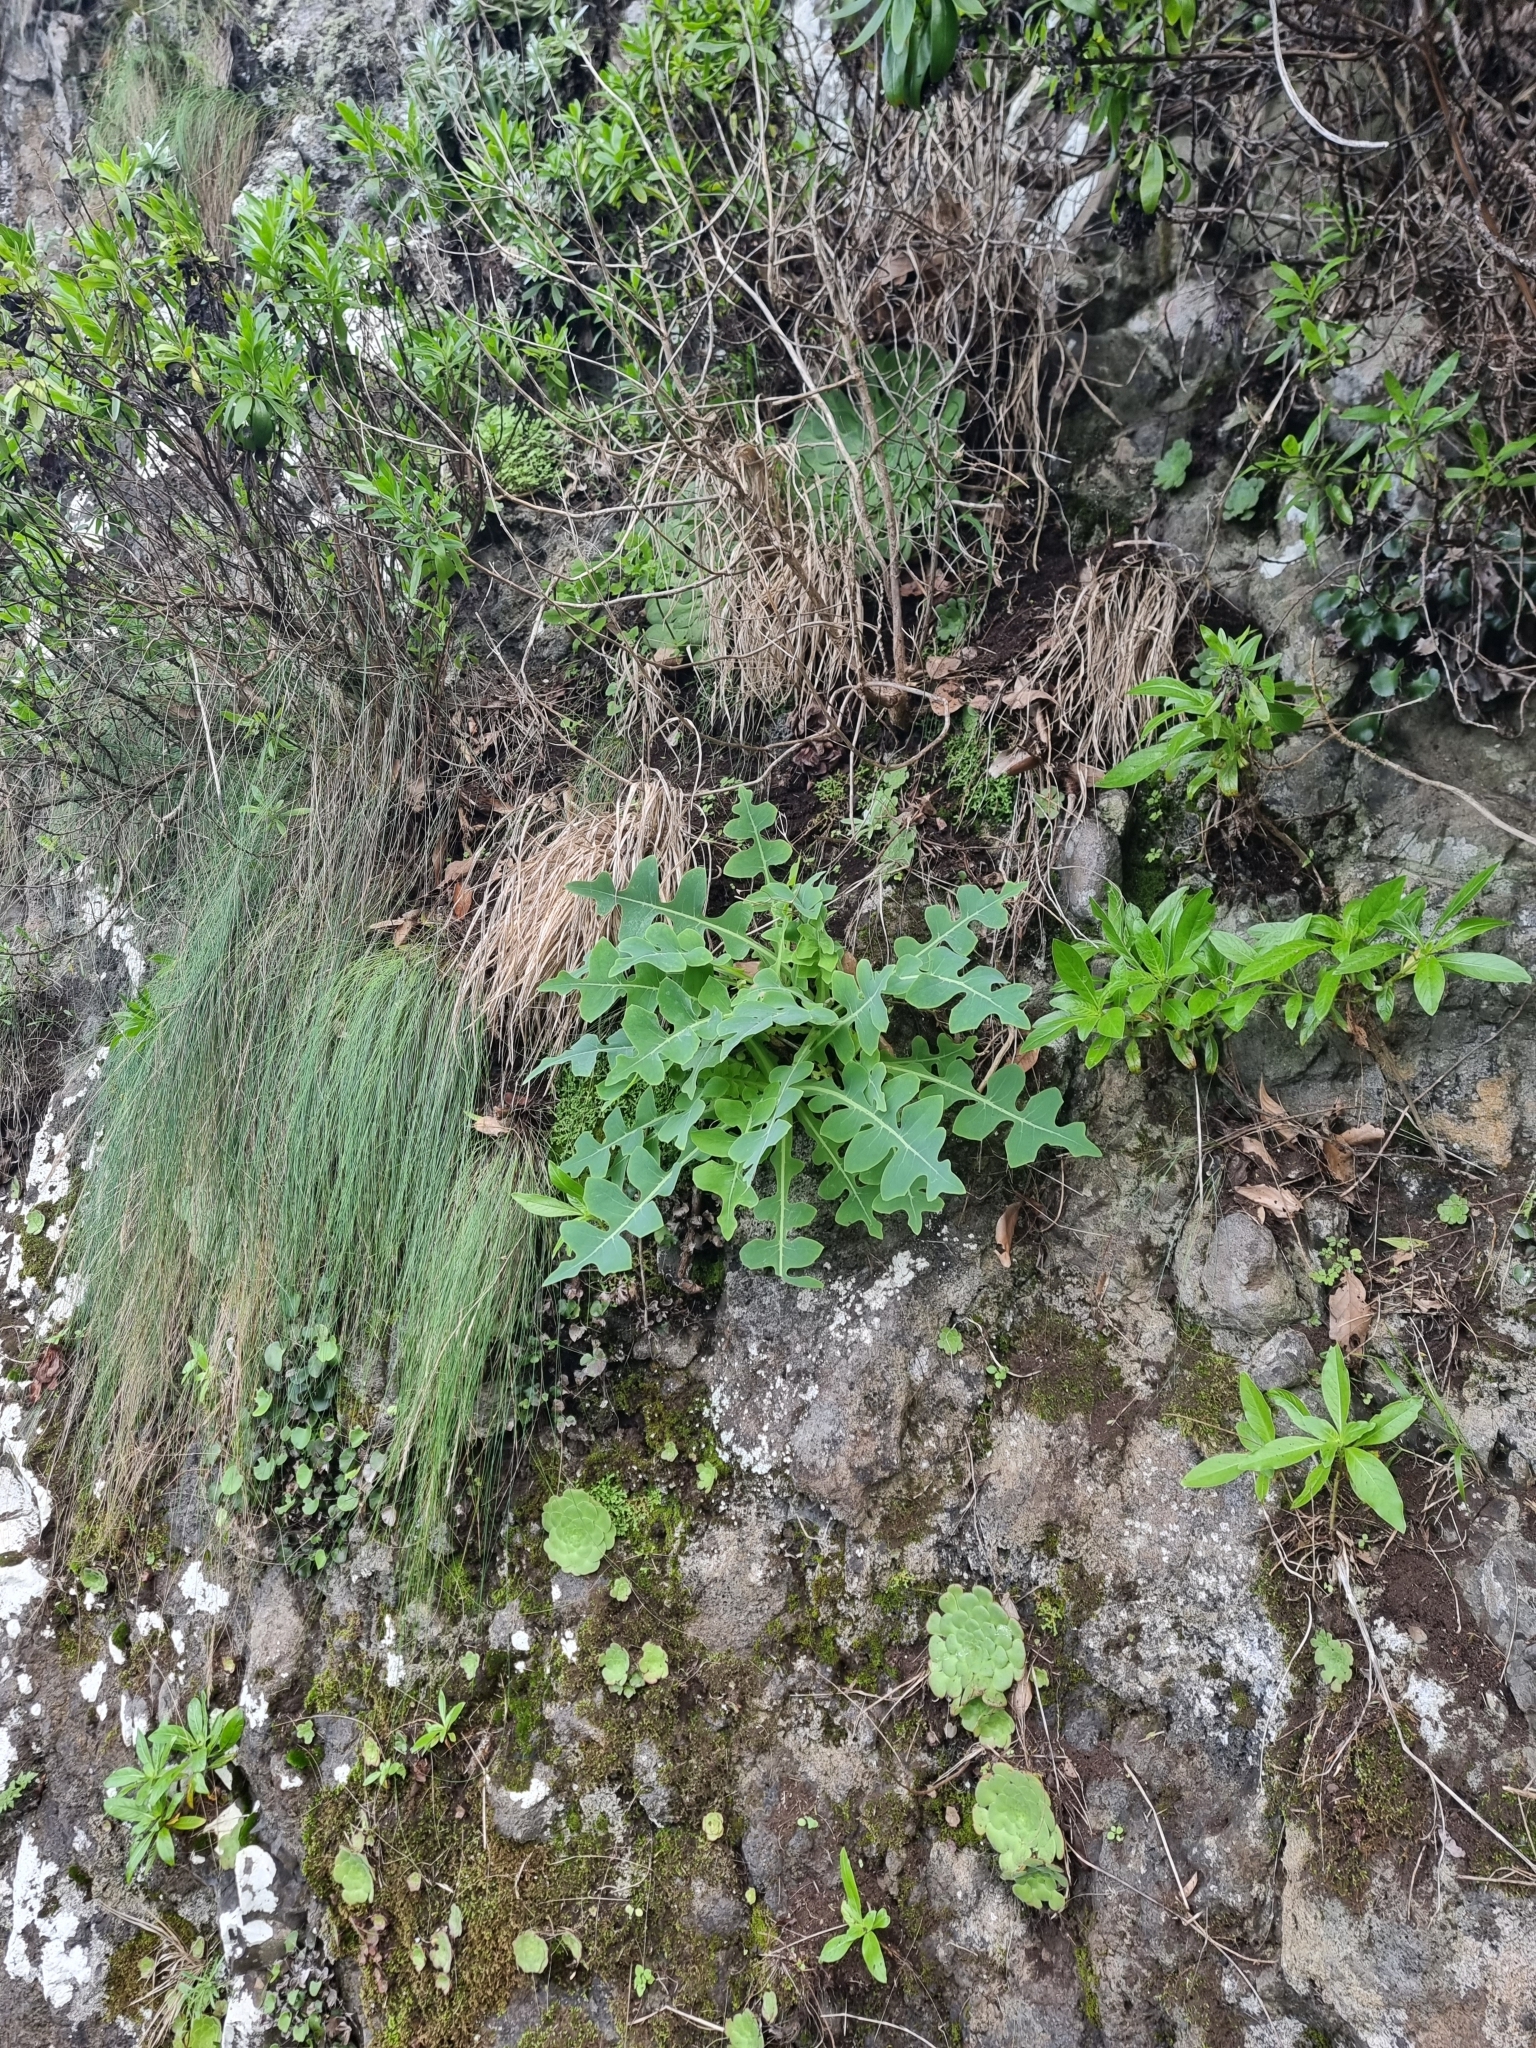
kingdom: Plantae
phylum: Tracheophyta
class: Magnoliopsida
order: Asterales
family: Asteraceae
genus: Sonchus
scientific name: Sonchus latifolius
